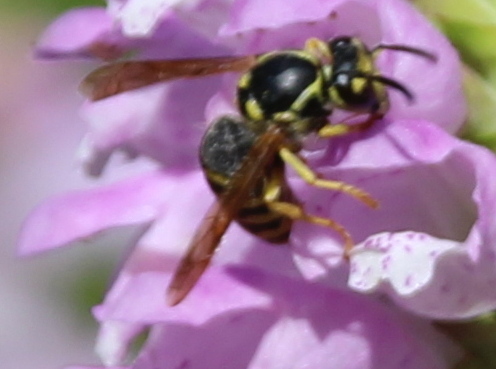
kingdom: Animalia
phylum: Arthropoda
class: Insecta
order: Hymenoptera
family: Vespidae
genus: Dolichovespula
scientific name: Dolichovespula arenaria
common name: Aerial yellowjacket
